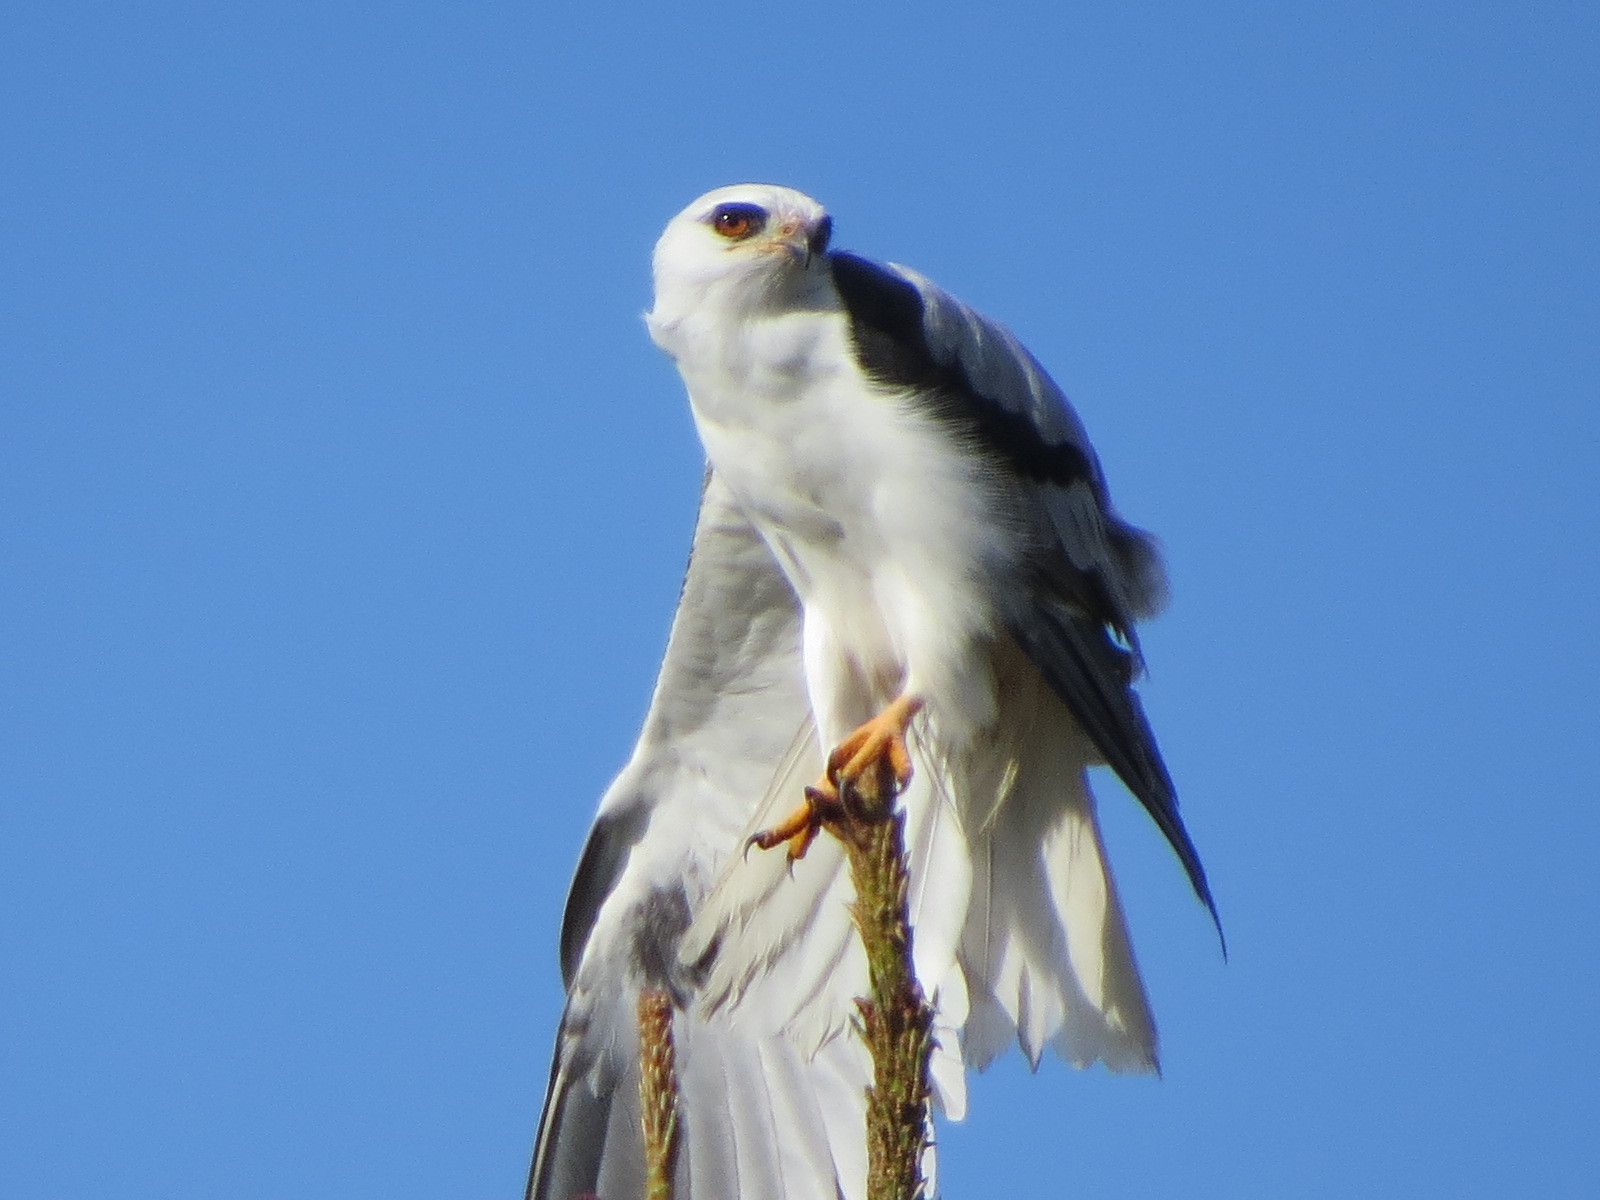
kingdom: Animalia
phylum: Chordata
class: Aves
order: Accipitriformes
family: Accipitridae
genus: Elanus
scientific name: Elanus leucurus
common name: White-tailed kite
